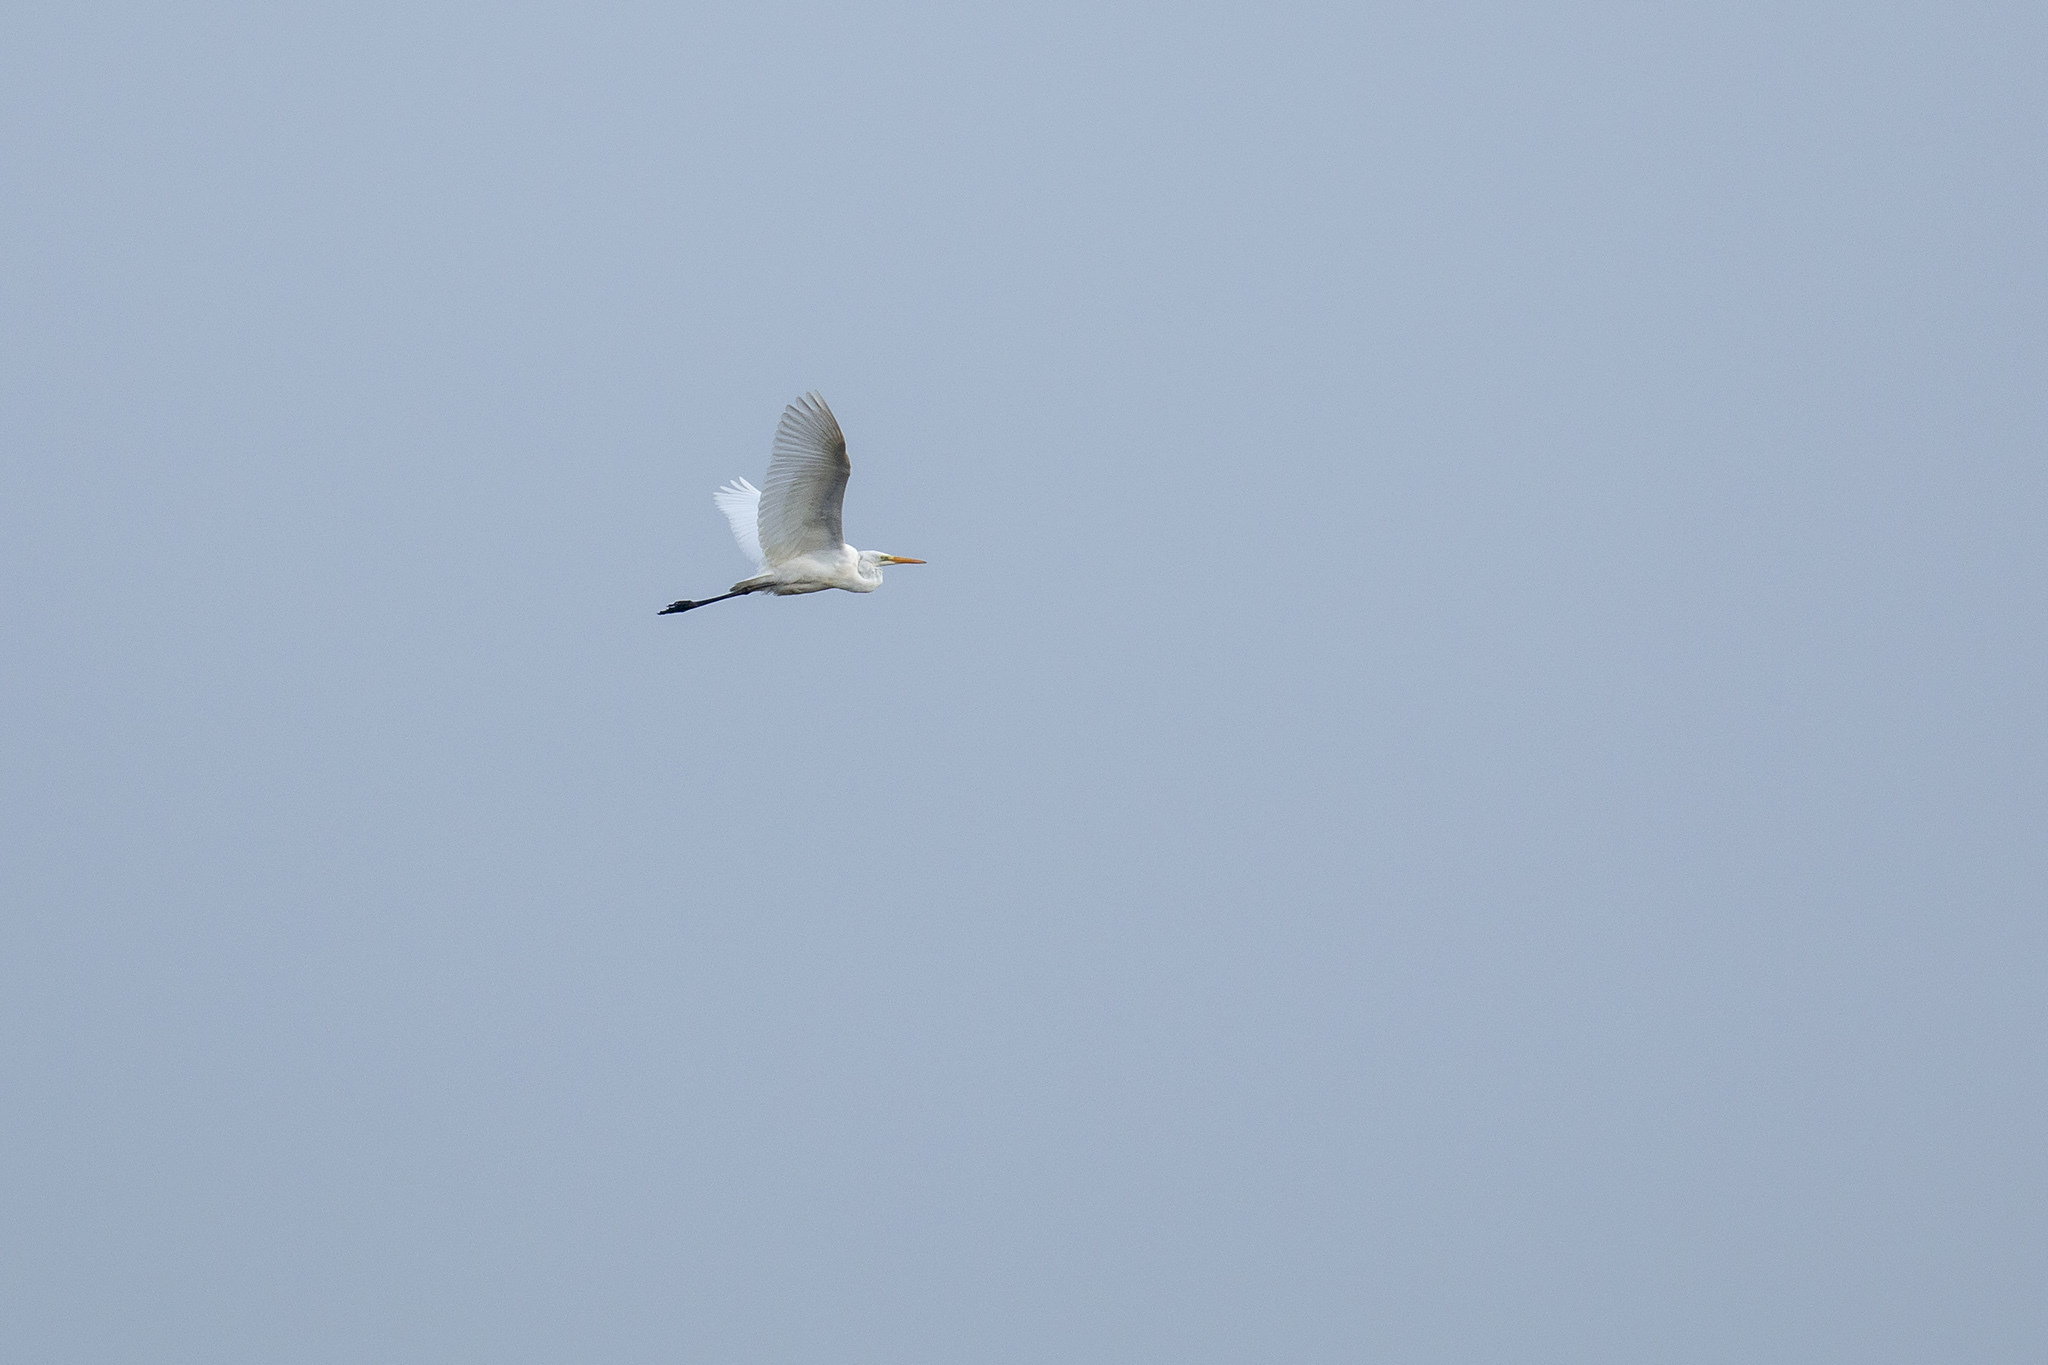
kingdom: Animalia
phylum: Chordata
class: Aves
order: Pelecaniformes
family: Ardeidae
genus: Ardea
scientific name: Ardea alba
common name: Great egret
